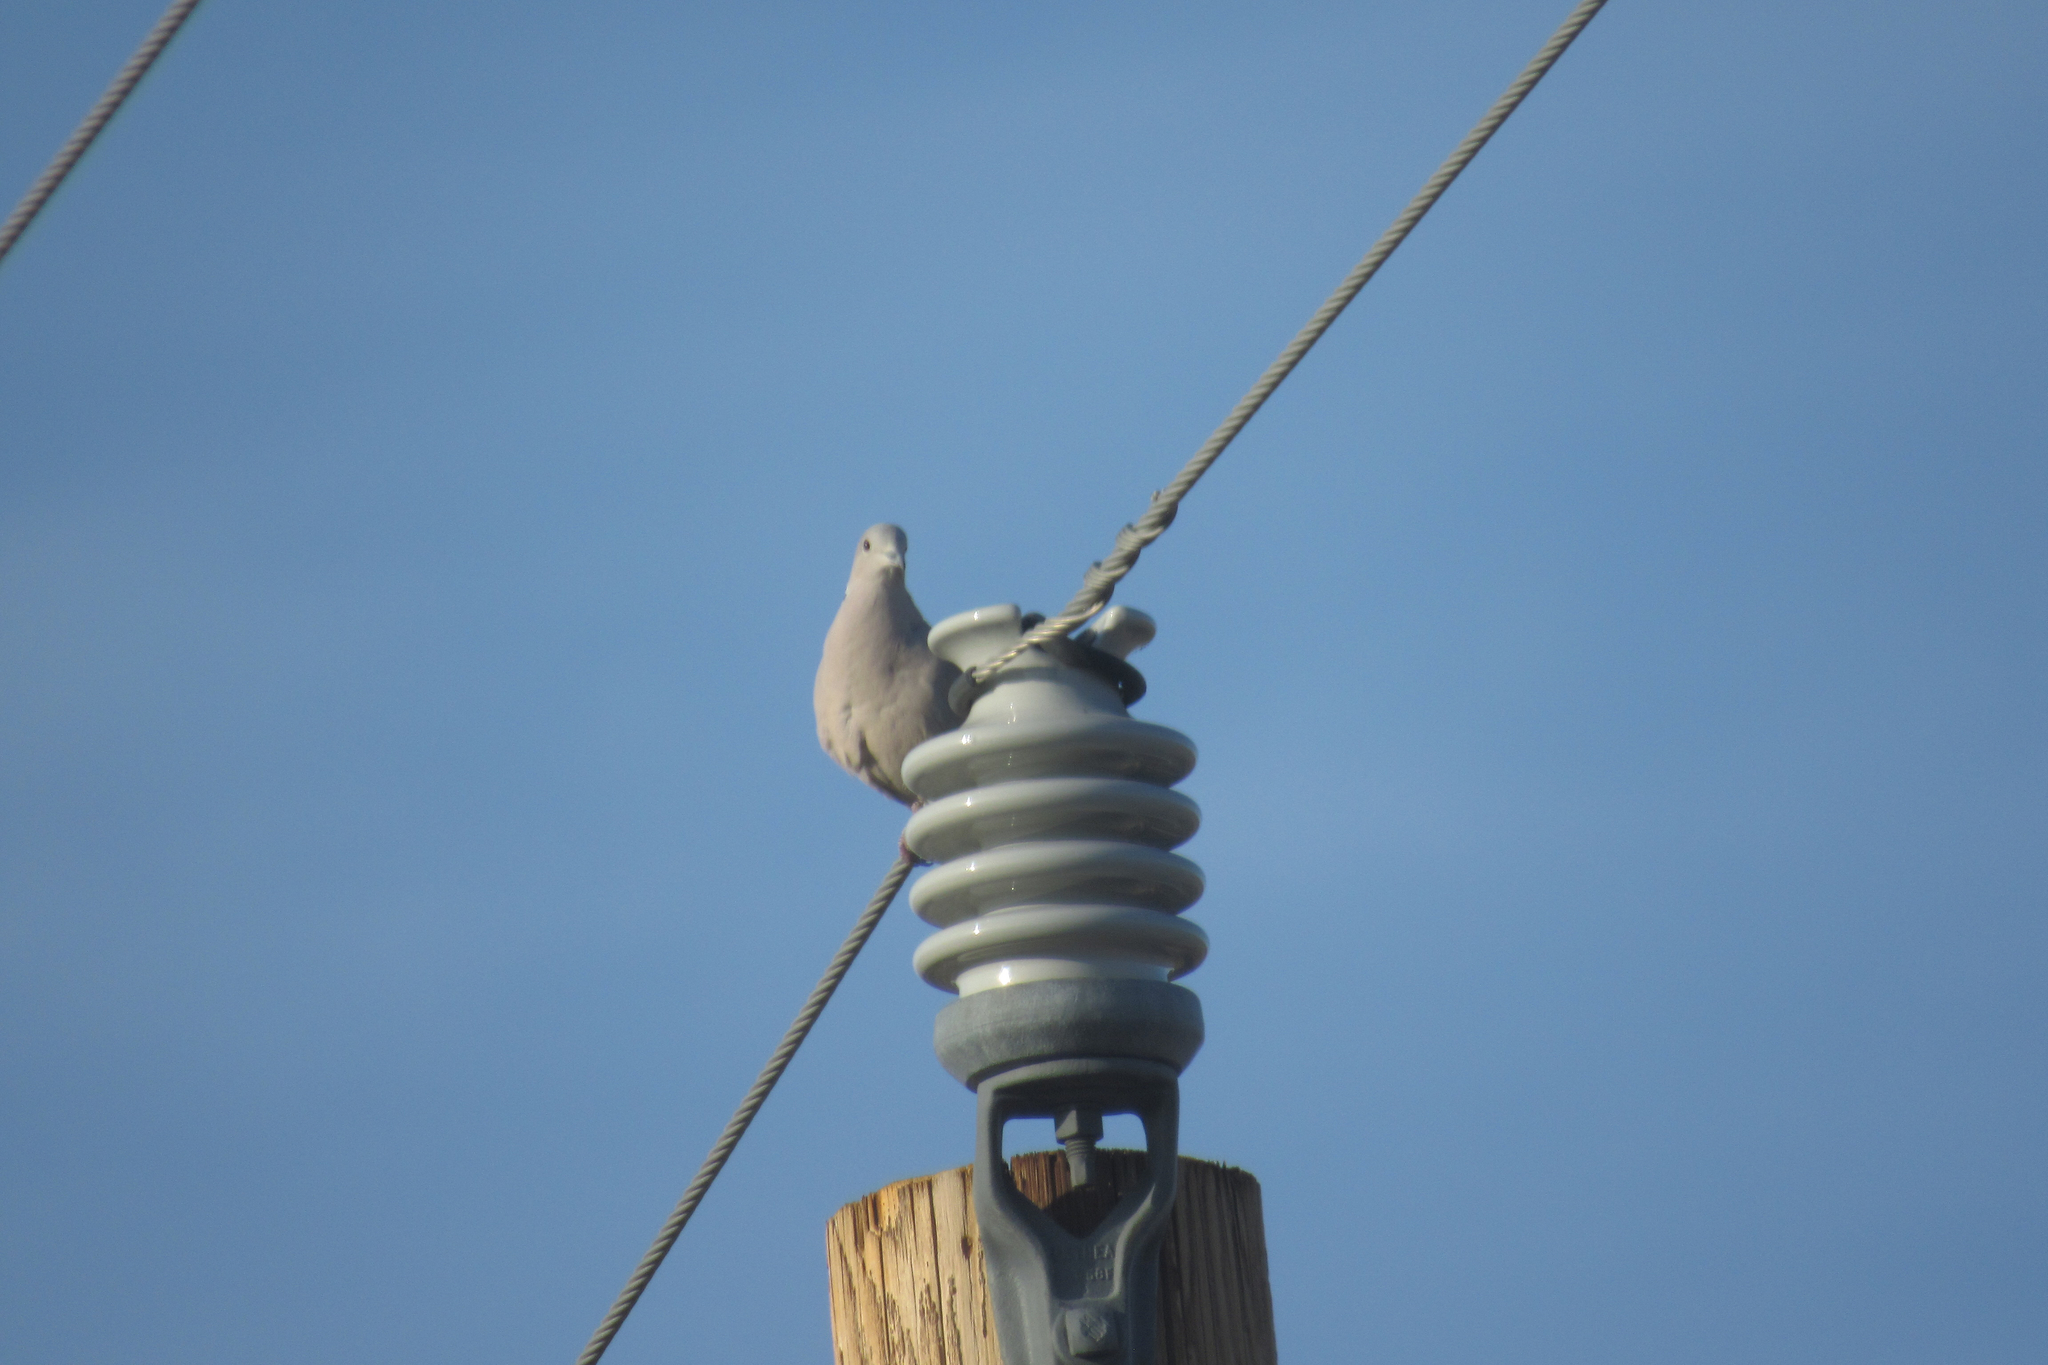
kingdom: Animalia
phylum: Chordata
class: Aves
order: Columbiformes
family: Columbidae
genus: Streptopelia
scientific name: Streptopelia decaocto
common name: Eurasian collared dove
